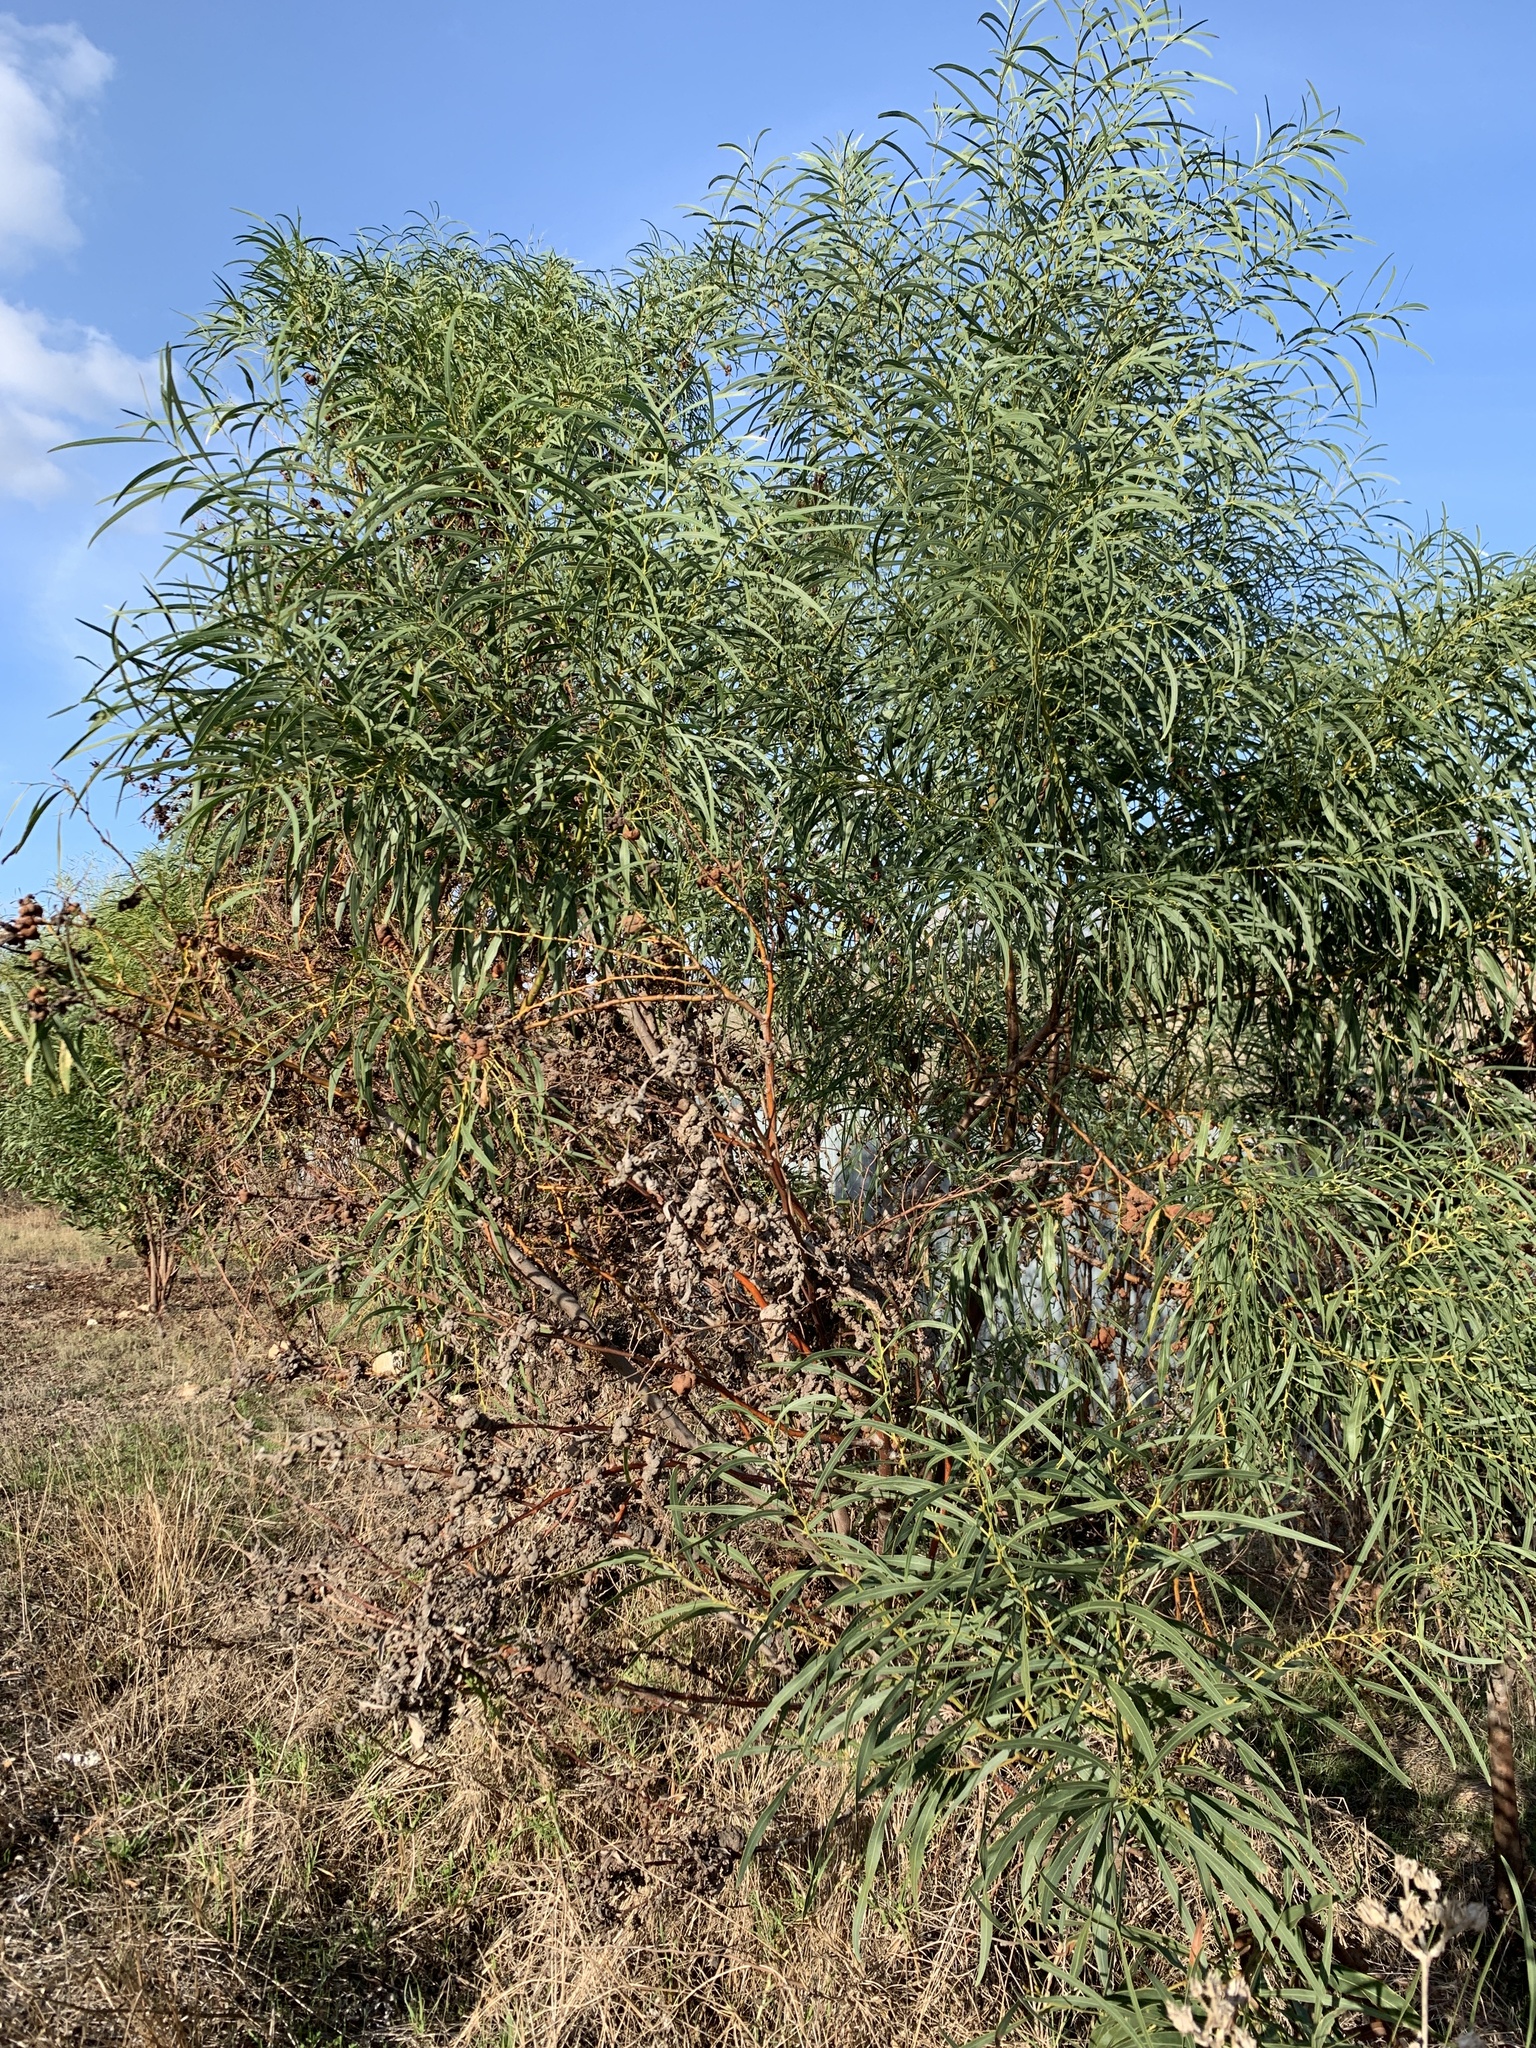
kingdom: Plantae
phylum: Tracheophyta
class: Magnoliopsida
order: Fabales
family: Fabaceae
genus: Acacia
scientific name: Acacia saligna
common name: Orange wattle
